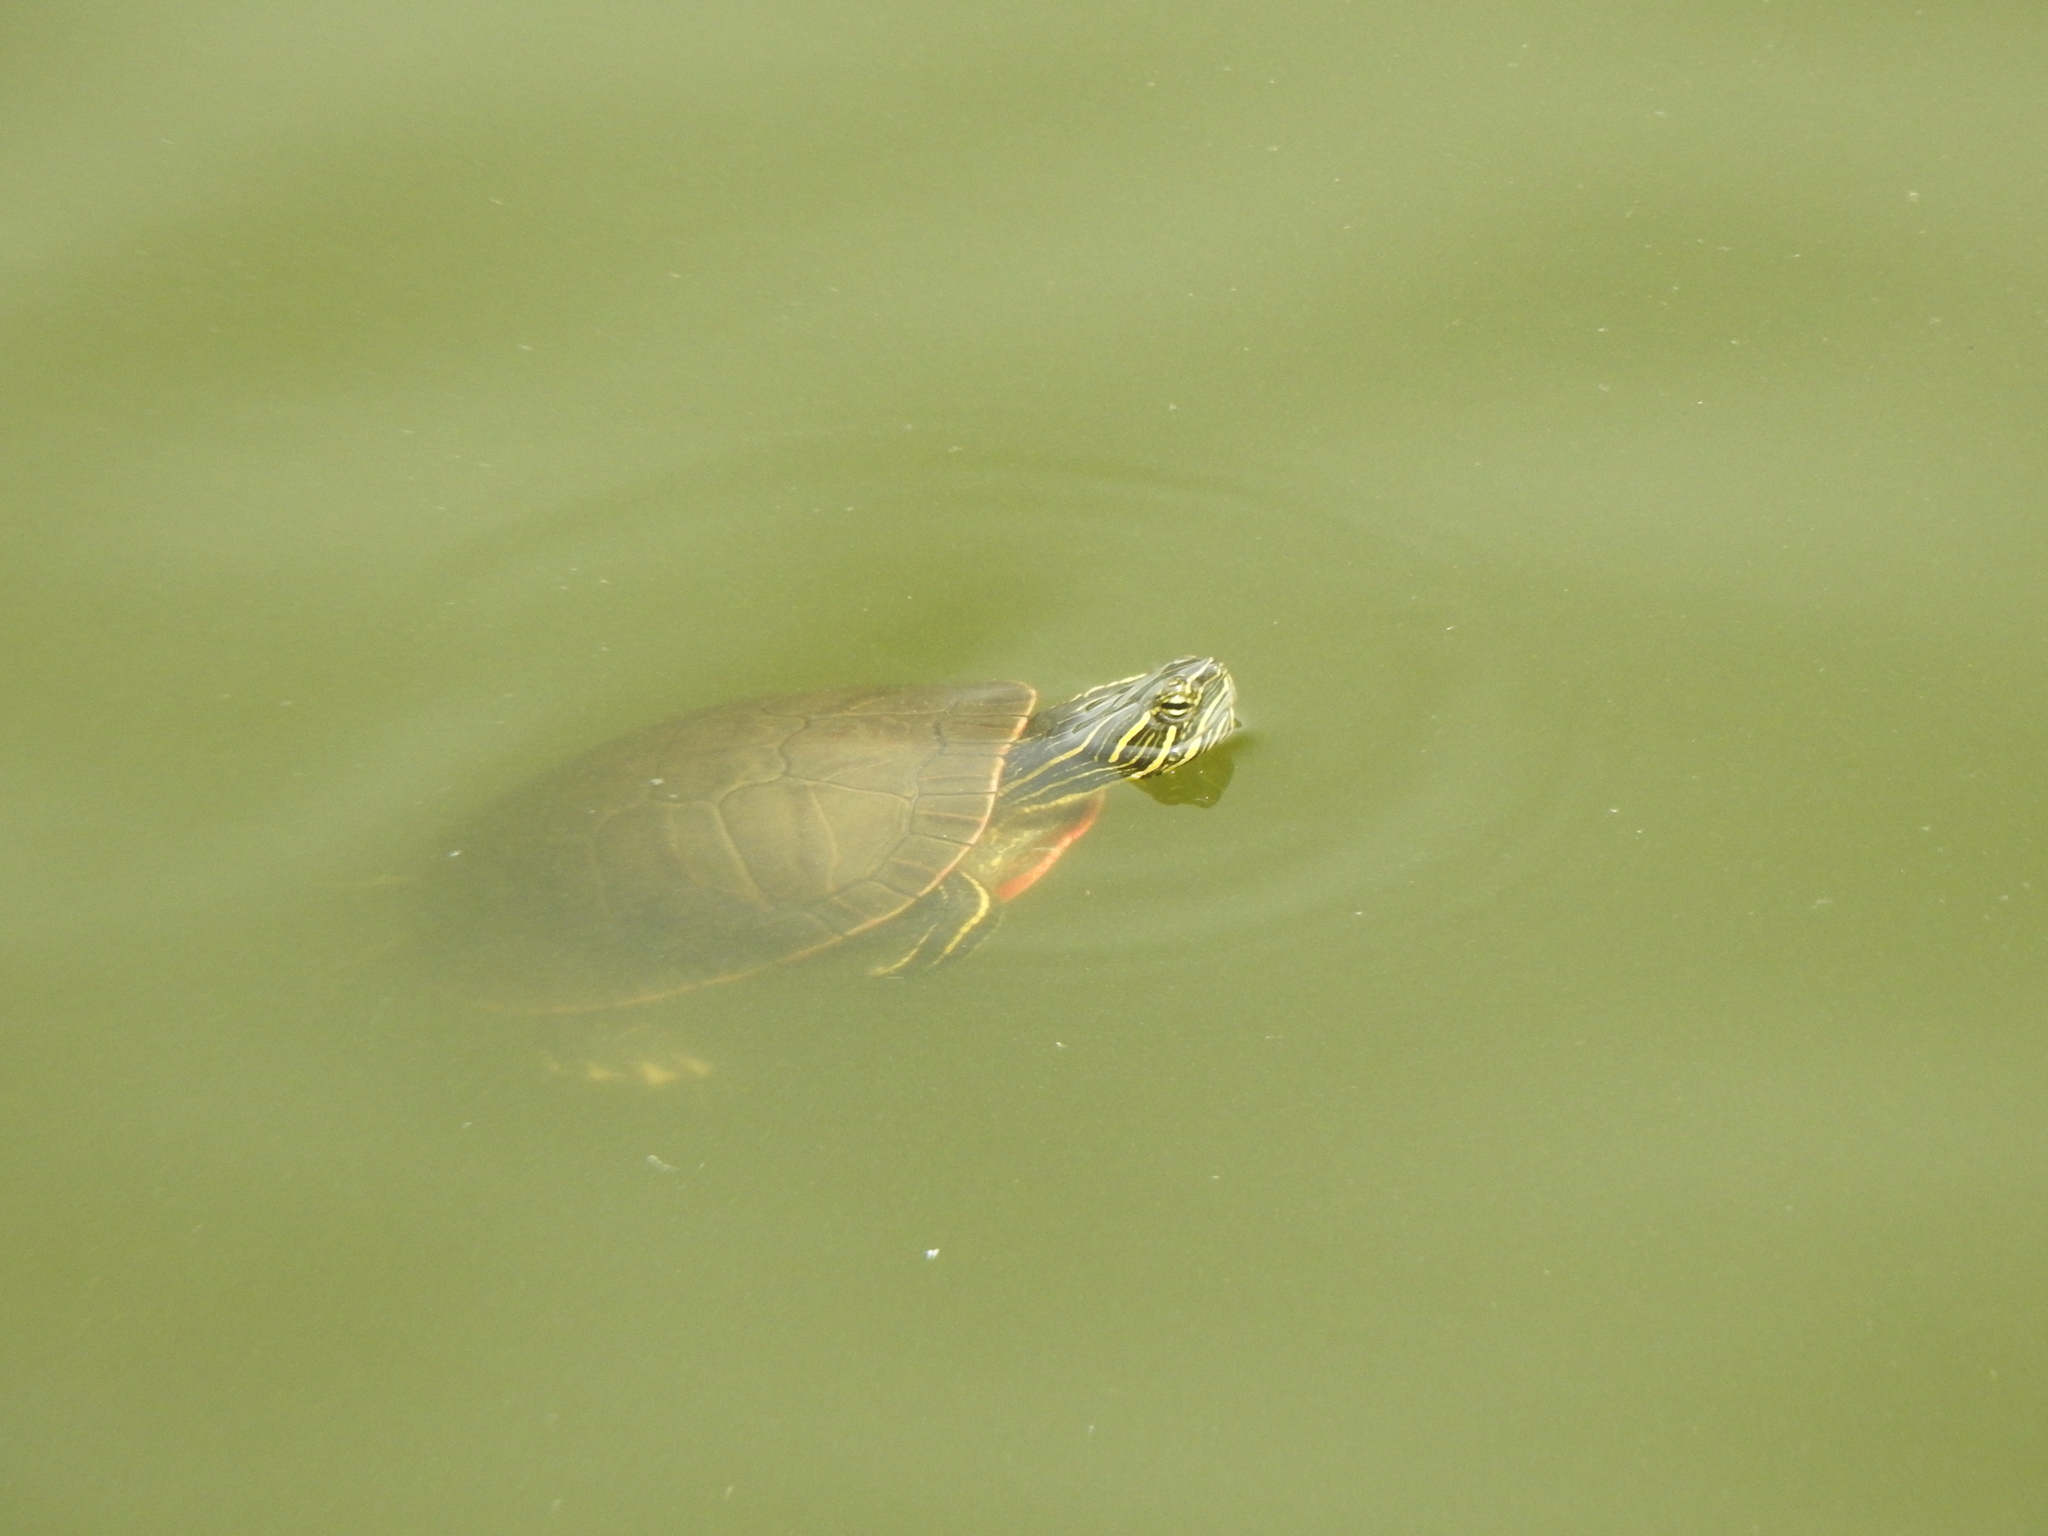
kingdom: Animalia
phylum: Chordata
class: Testudines
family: Emydidae
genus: Chrysemys
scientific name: Chrysemys picta
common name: Painted turtle
